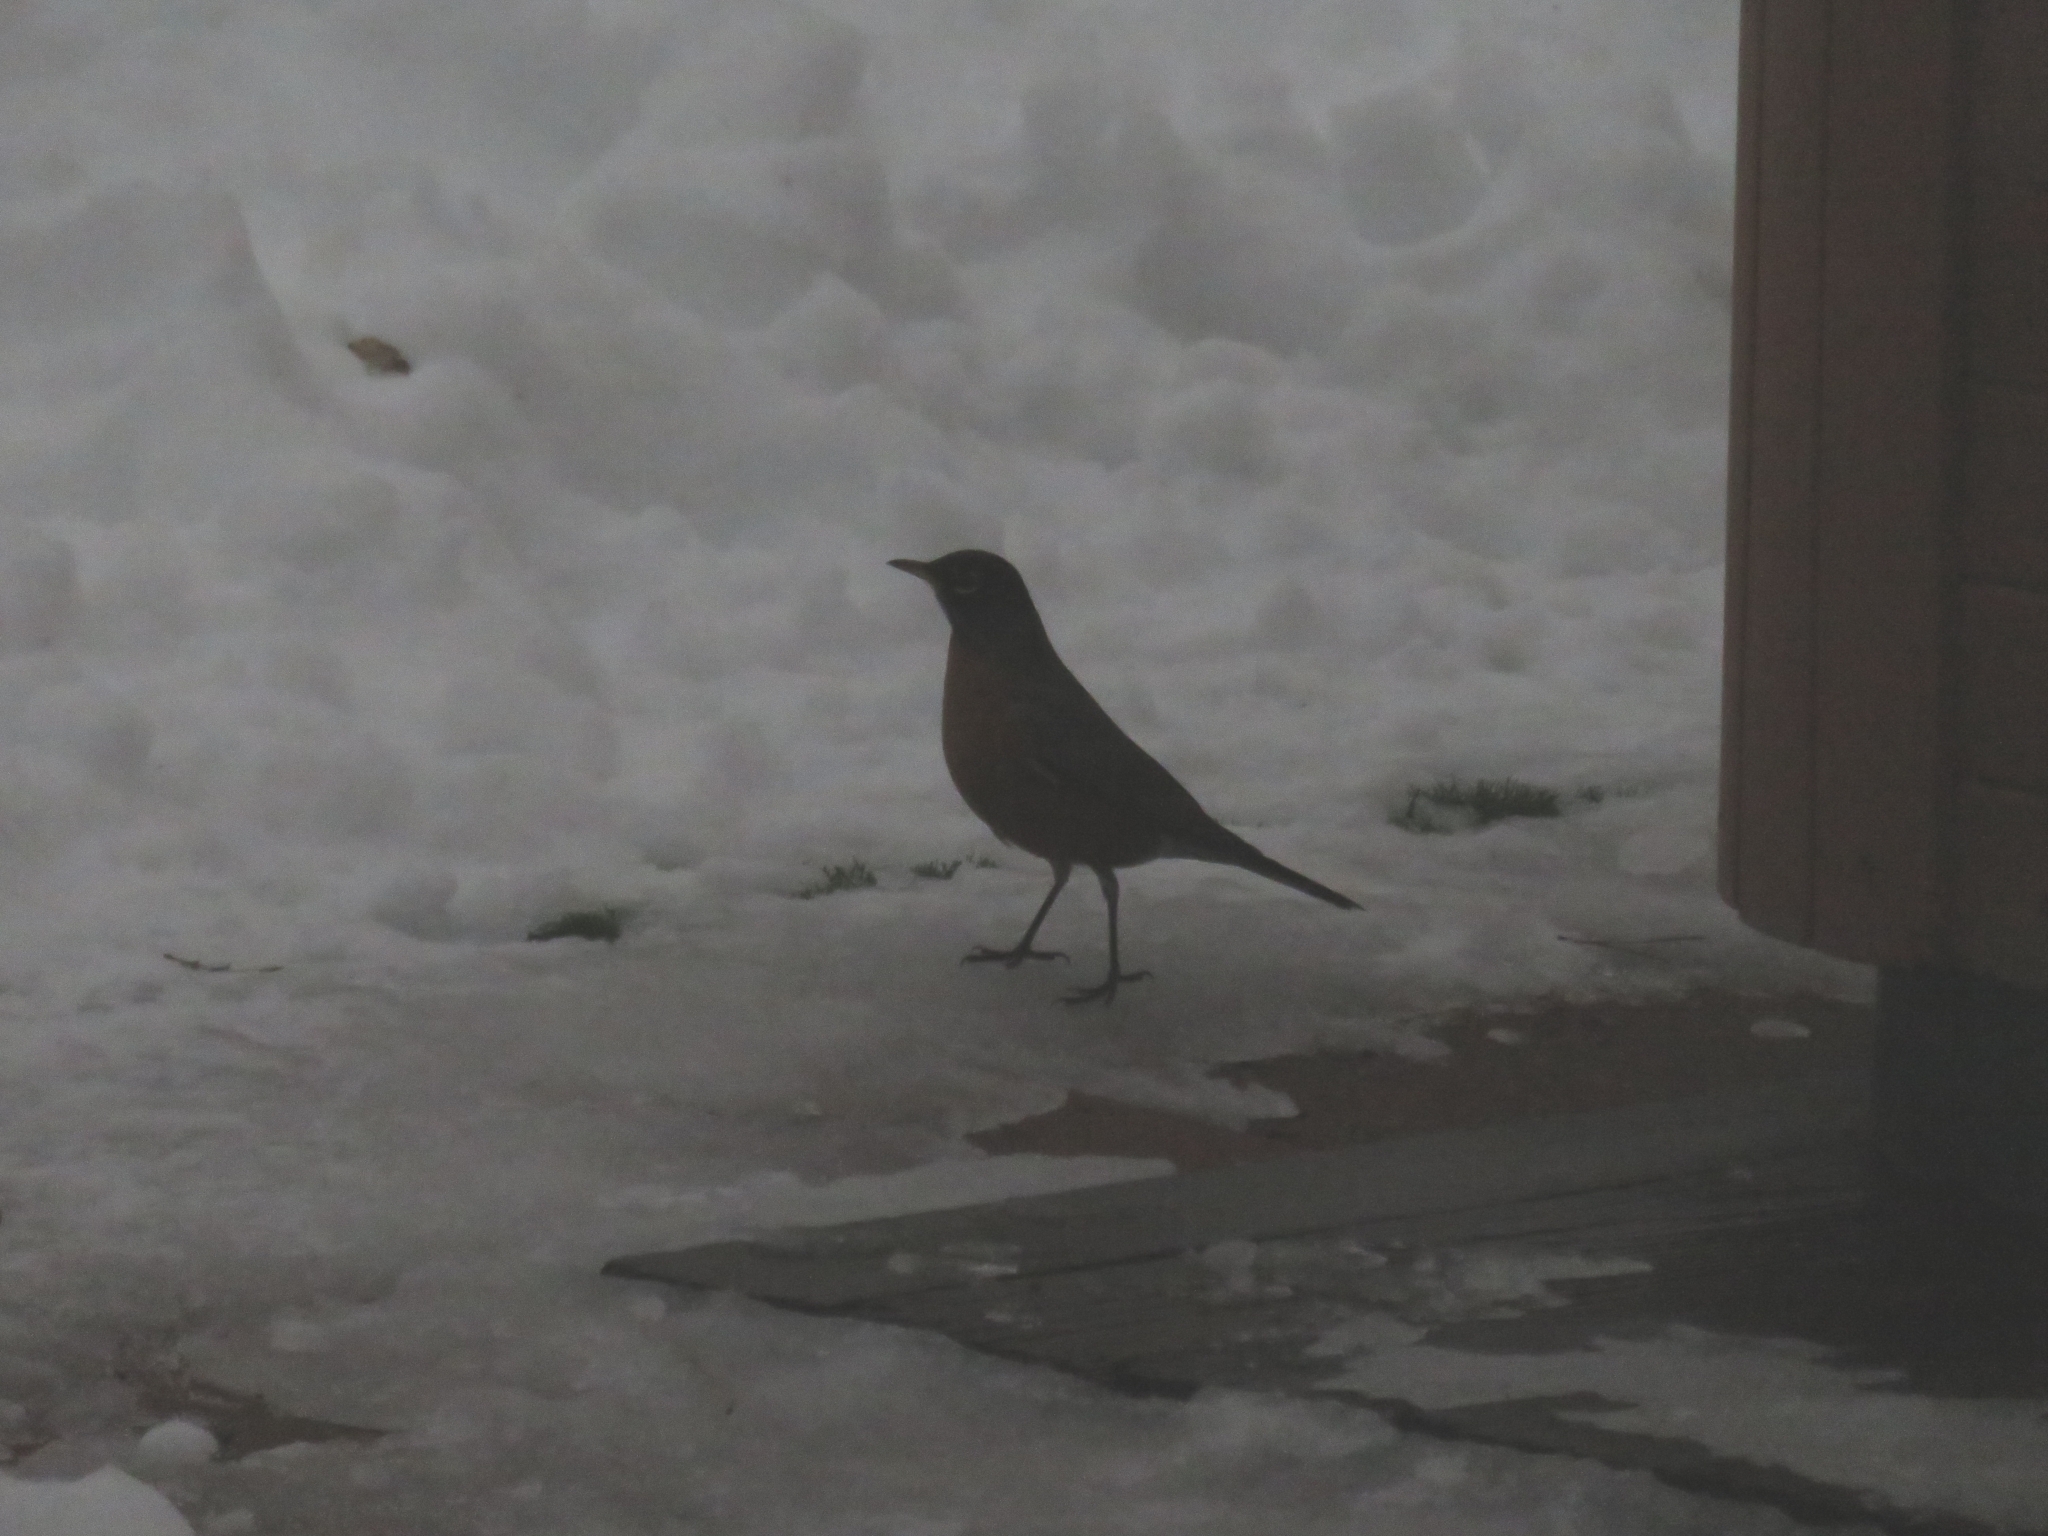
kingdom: Animalia
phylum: Chordata
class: Aves
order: Passeriformes
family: Turdidae
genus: Turdus
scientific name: Turdus migratorius
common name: American robin
